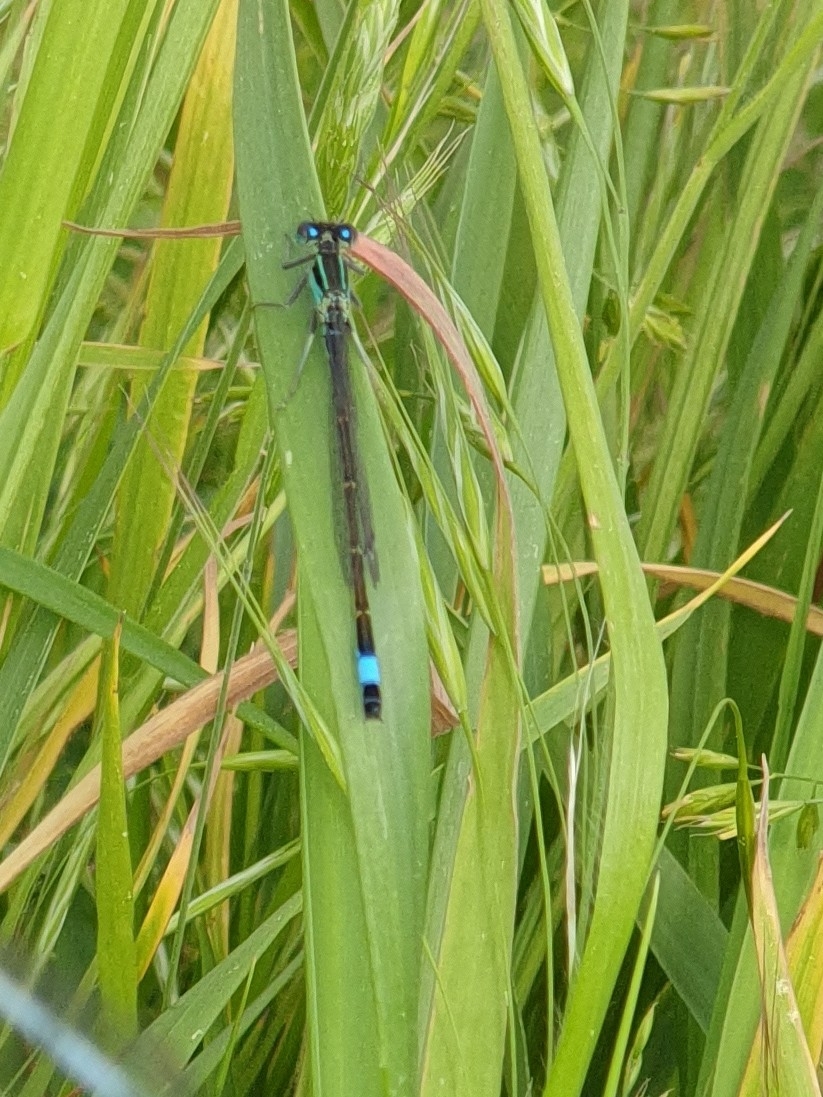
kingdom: Animalia
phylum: Arthropoda
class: Insecta
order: Odonata
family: Coenagrionidae
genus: Ischnura
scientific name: Ischnura elegans
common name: Blue-tailed damselfly
